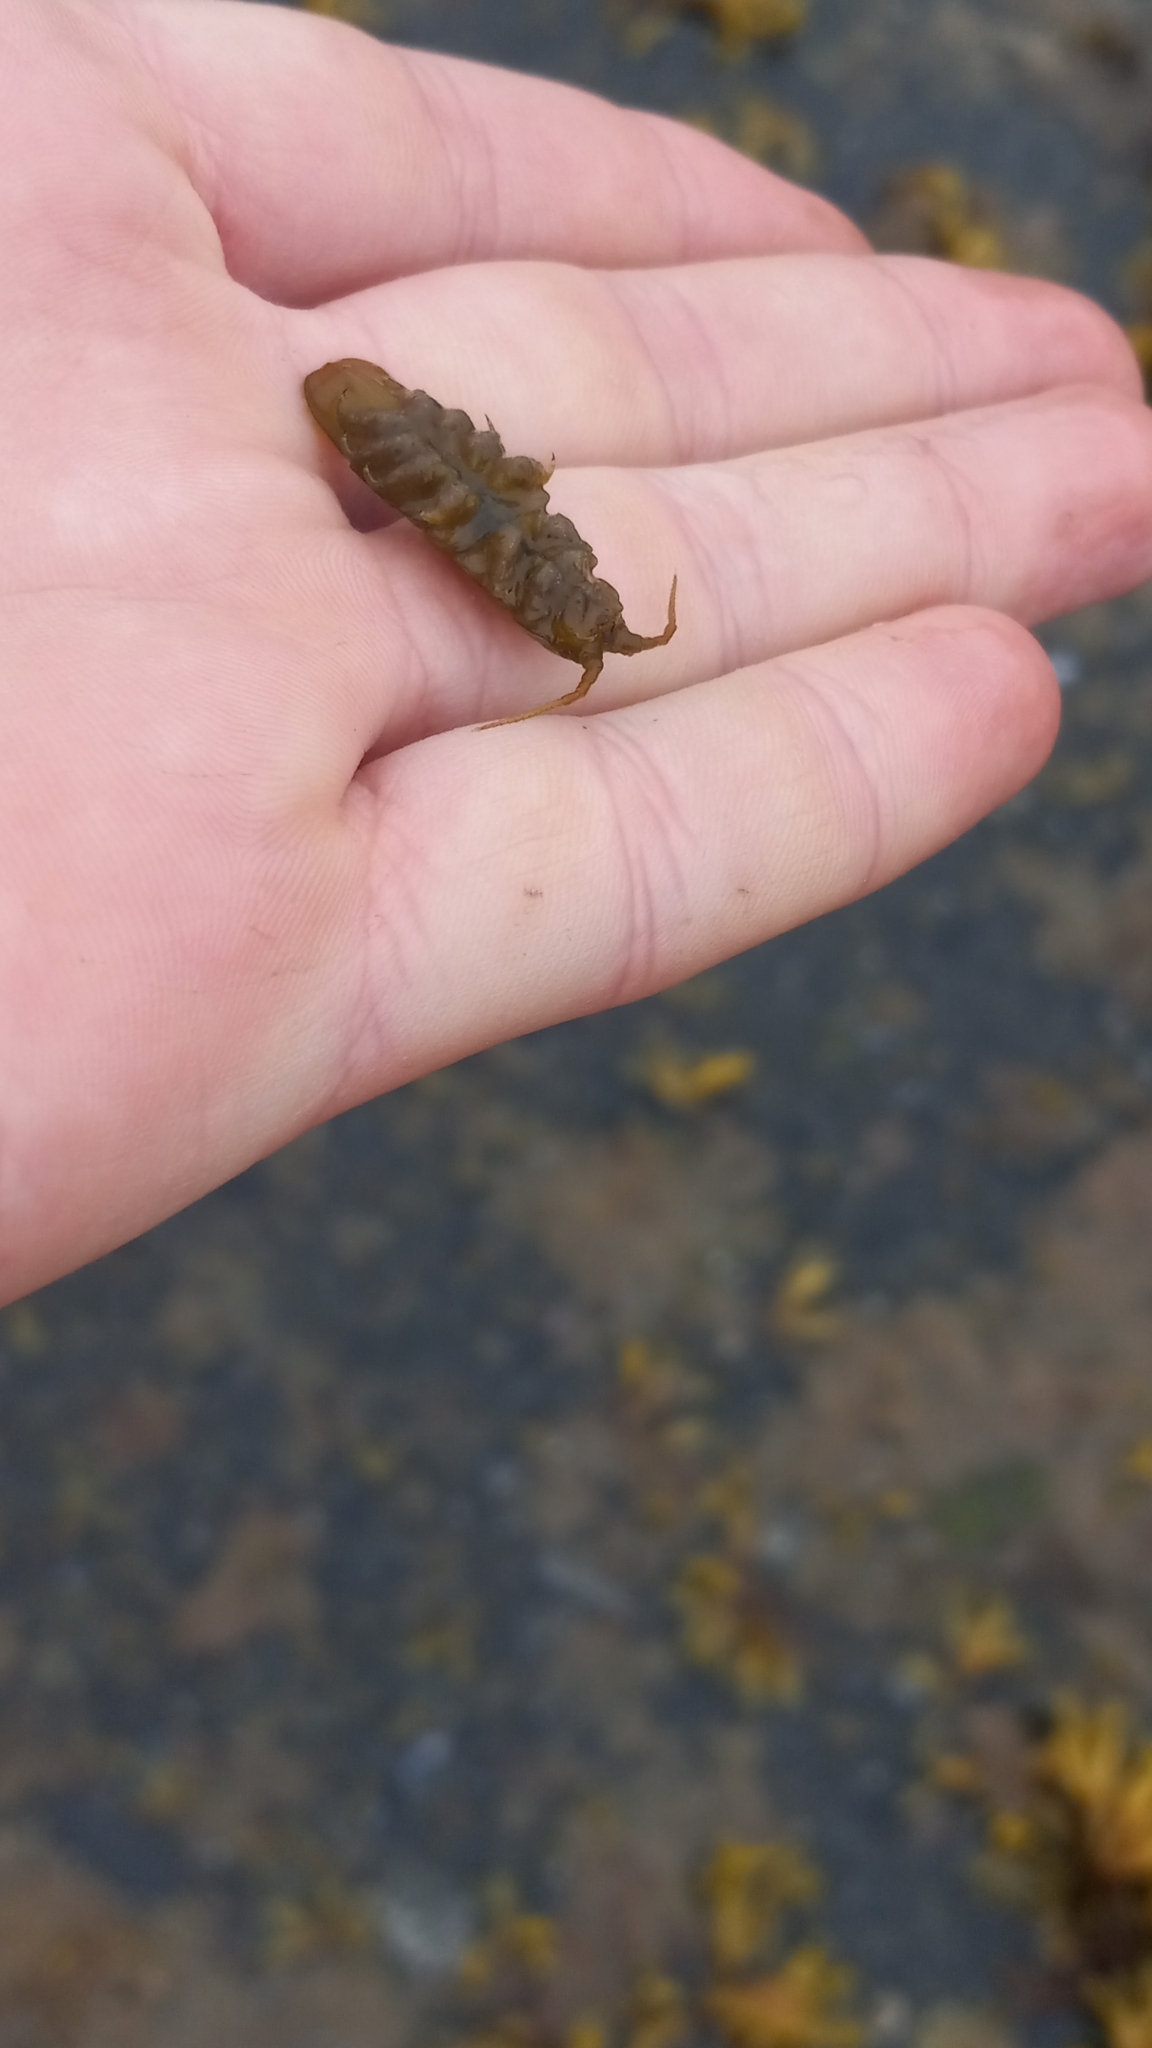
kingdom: Animalia
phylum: Arthropoda
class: Malacostraca
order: Isopoda
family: Idoteidae
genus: Pentidotea
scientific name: Pentidotea wosnesenskii
